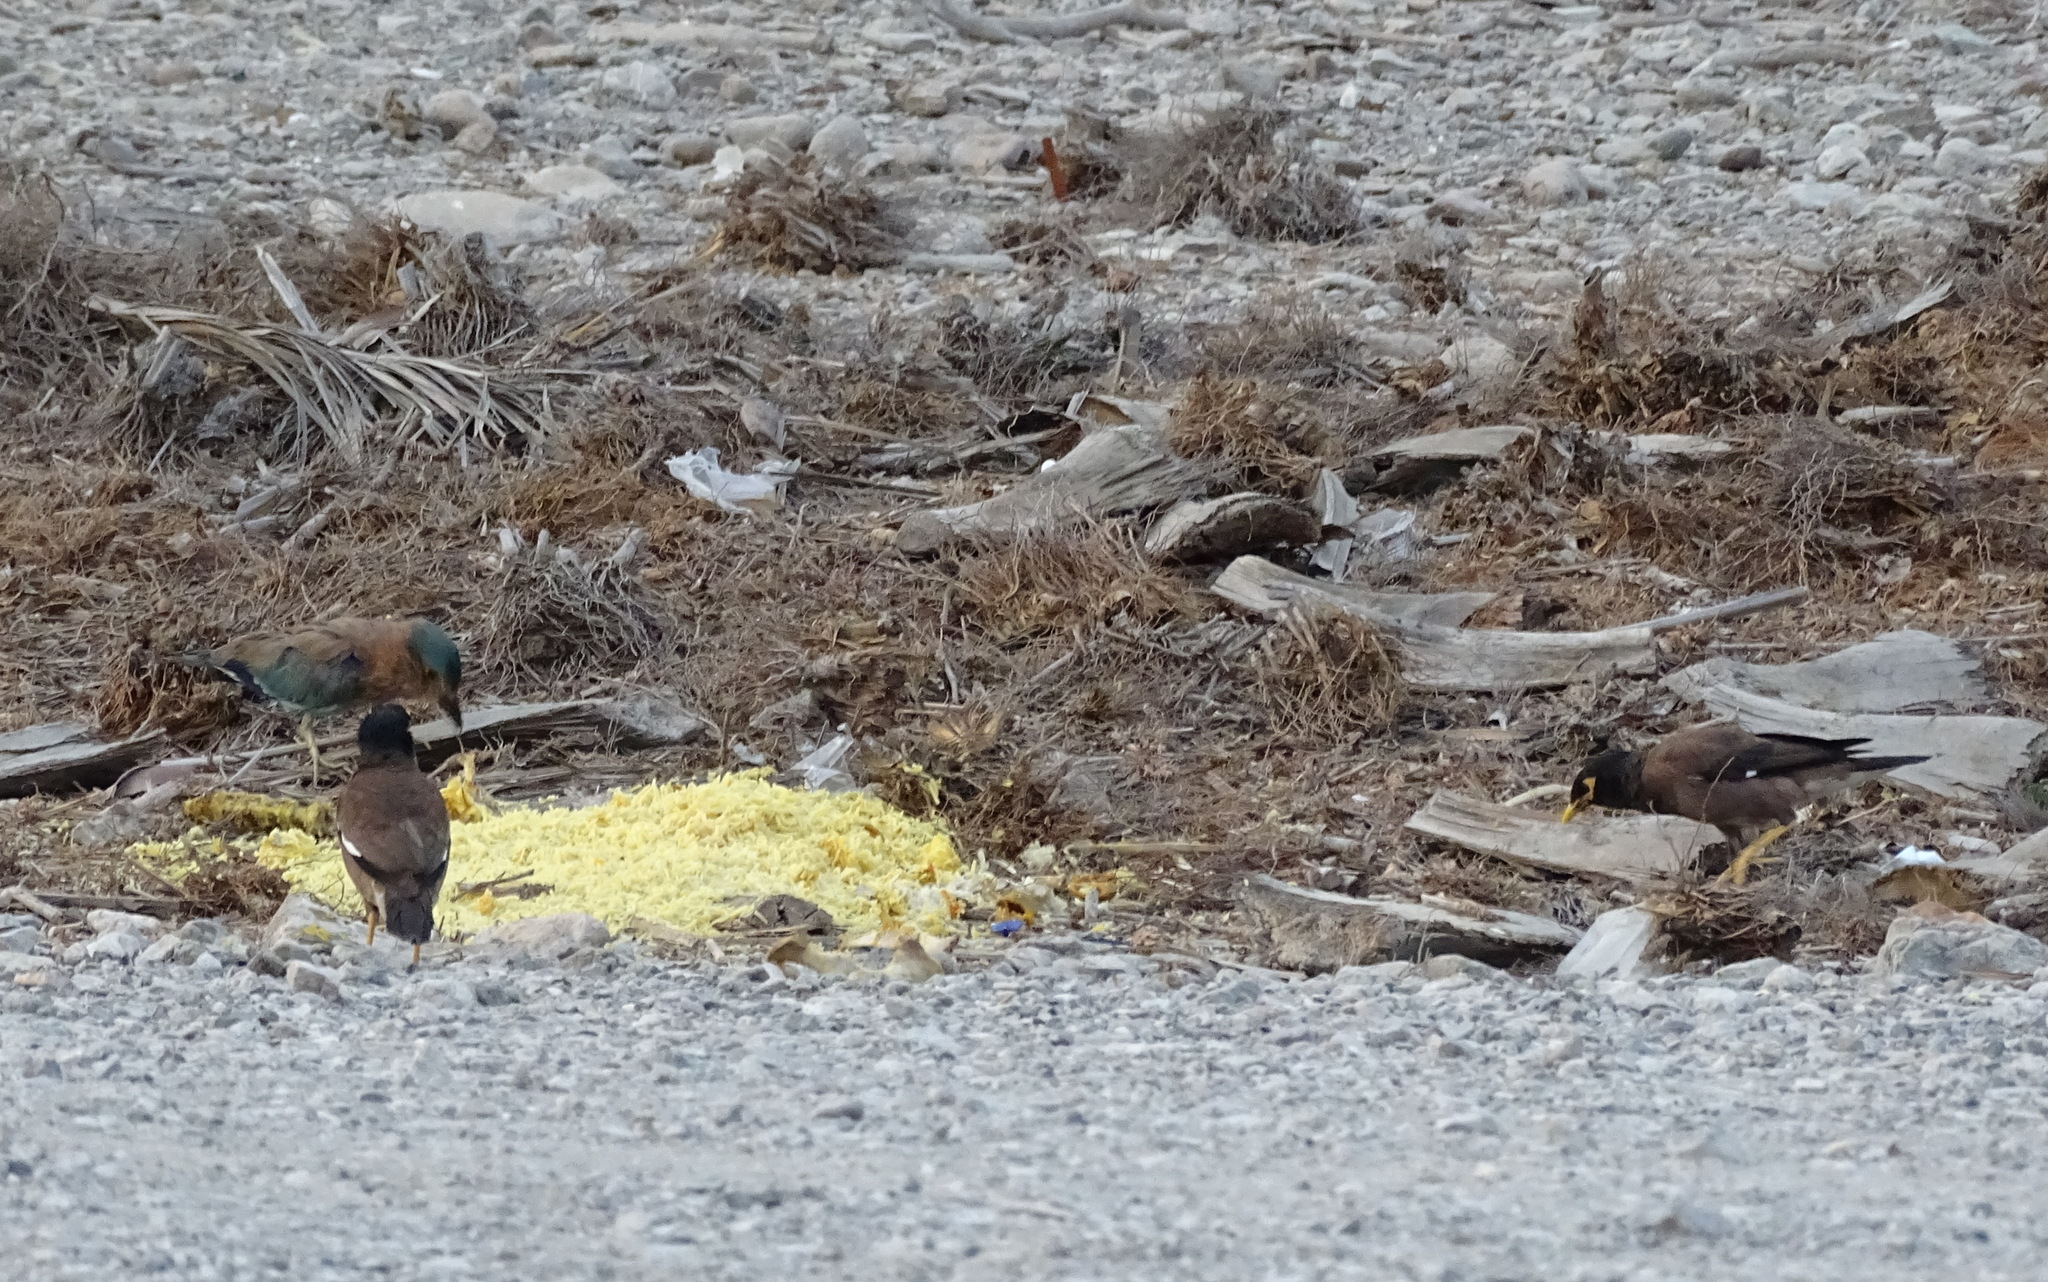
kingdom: Animalia
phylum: Chordata
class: Aves
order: Passeriformes
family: Sturnidae
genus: Acridotheres
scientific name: Acridotheres tristis
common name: Common myna
